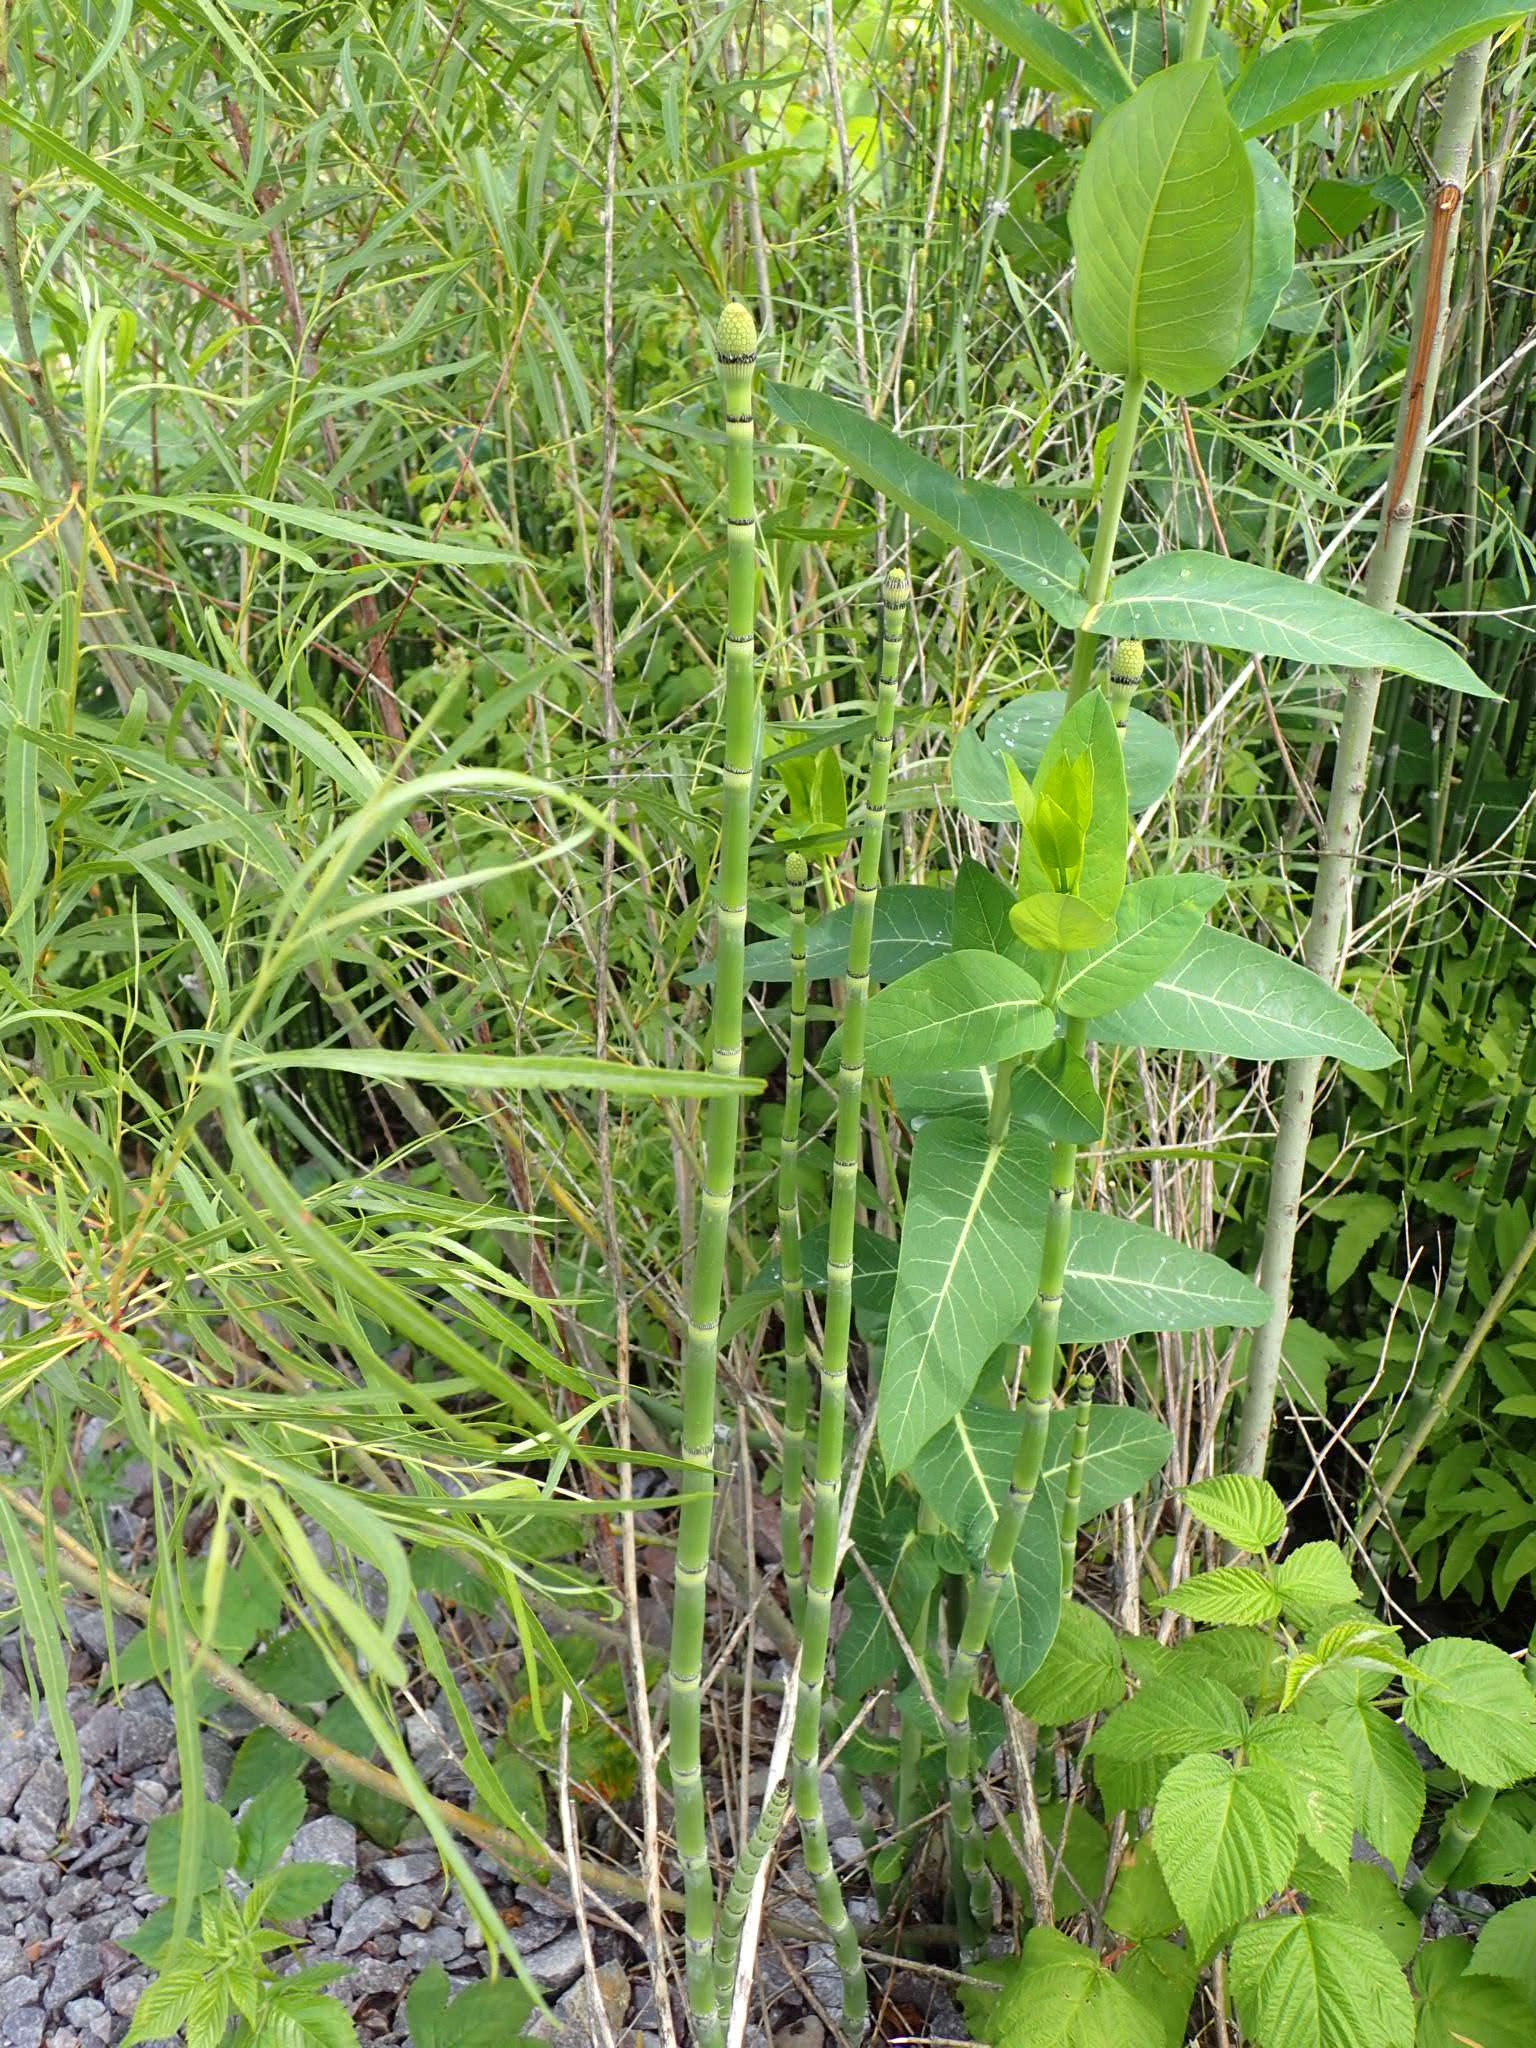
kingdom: Plantae
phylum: Tracheophyta
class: Polypodiopsida
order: Equisetales
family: Equisetaceae
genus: Equisetum
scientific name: Equisetum laevigatum
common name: Smooth scouring-rush
